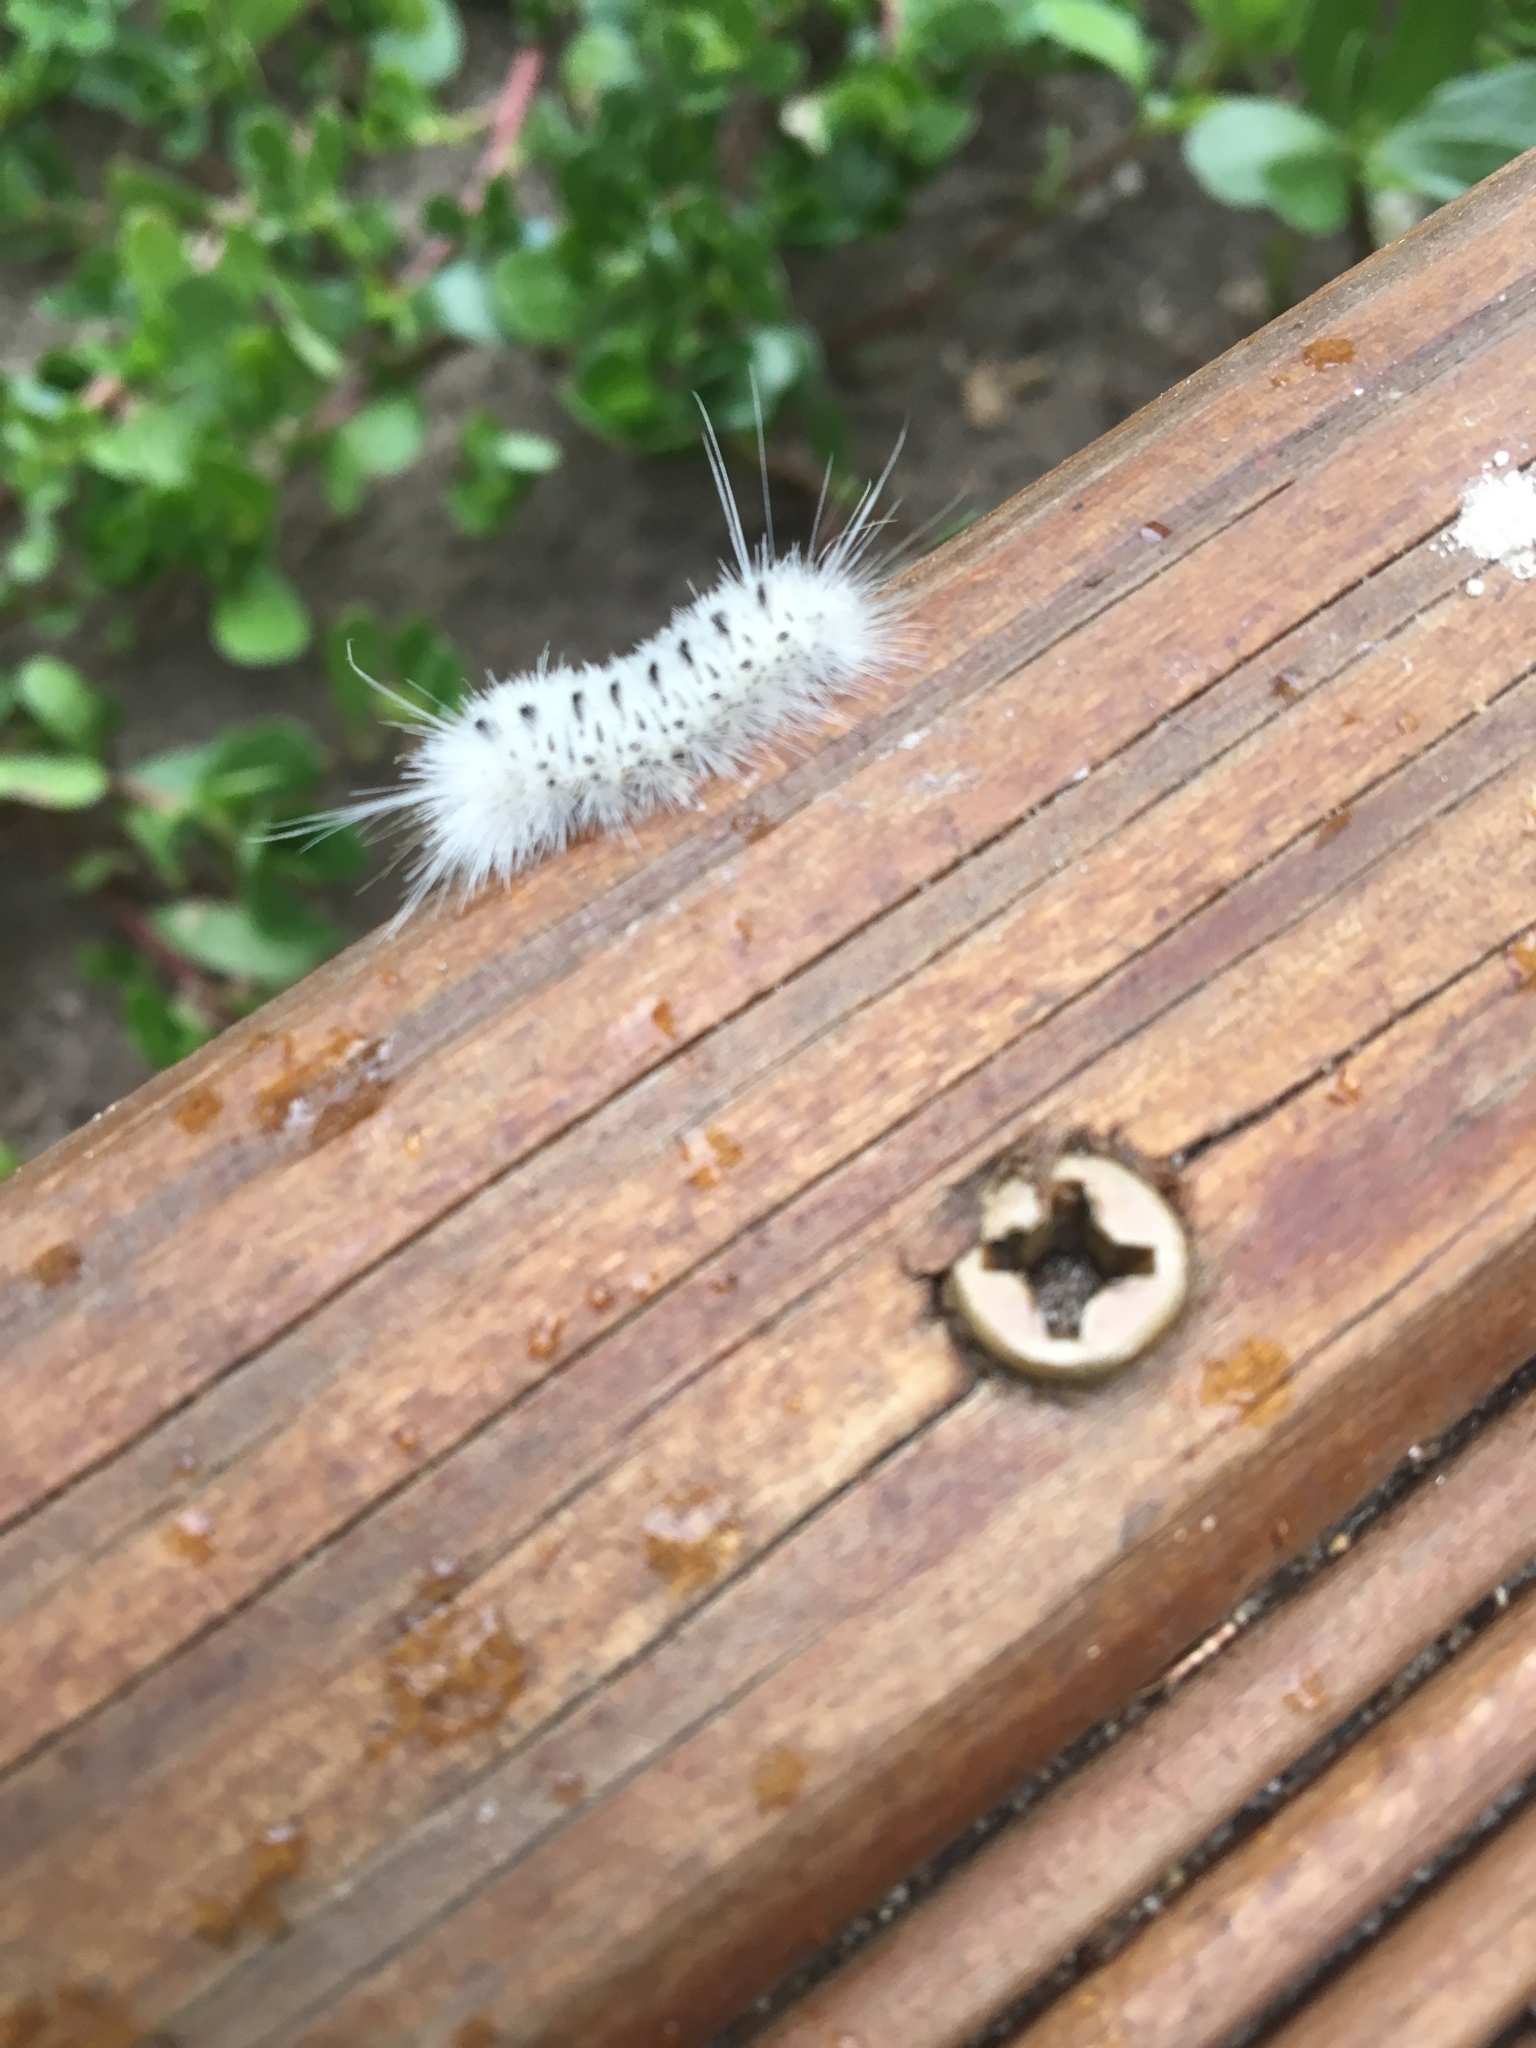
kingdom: Animalia
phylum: Arthropoda
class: Insecta
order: Lepidoptera
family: Erebidae
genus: Lophocampa
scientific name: Lophocampa caryae
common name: Hickory tussock moth
